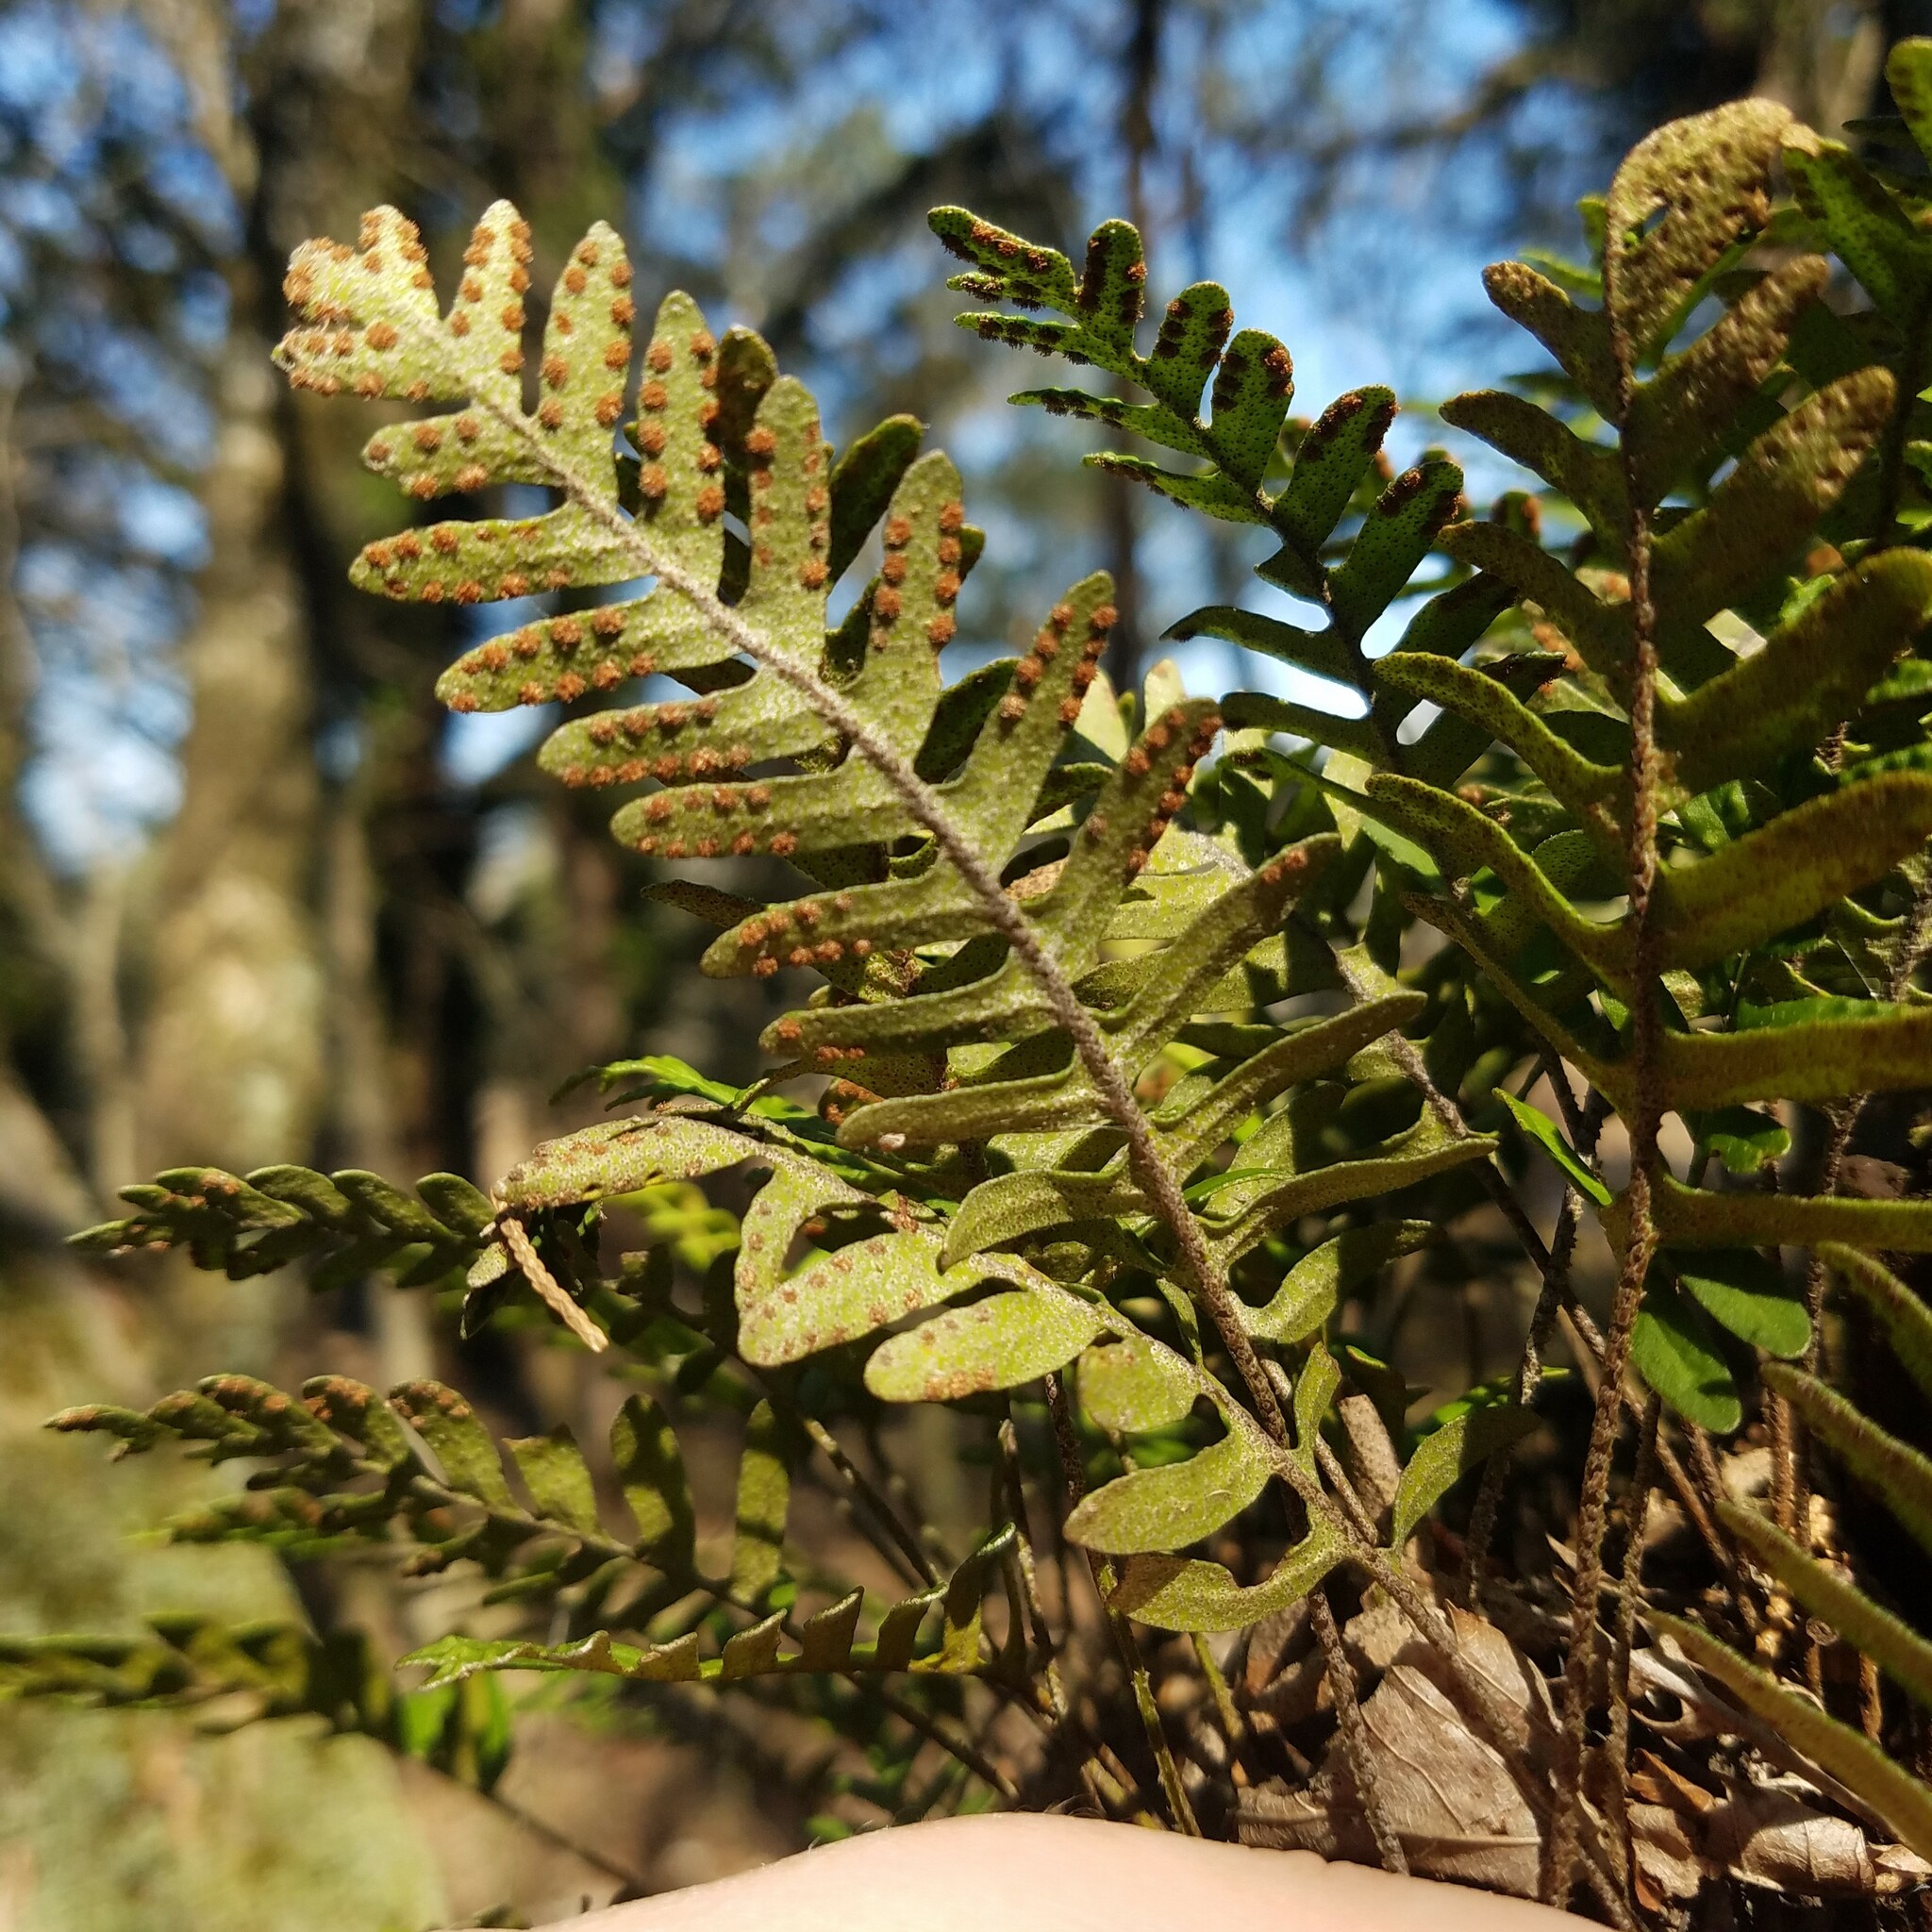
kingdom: Plantae
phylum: Tracheophyta
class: Polypodiopsida
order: Polypodiales
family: Polypodiaceae
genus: Pleopeltis
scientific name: Pleopeltis michauxiana
